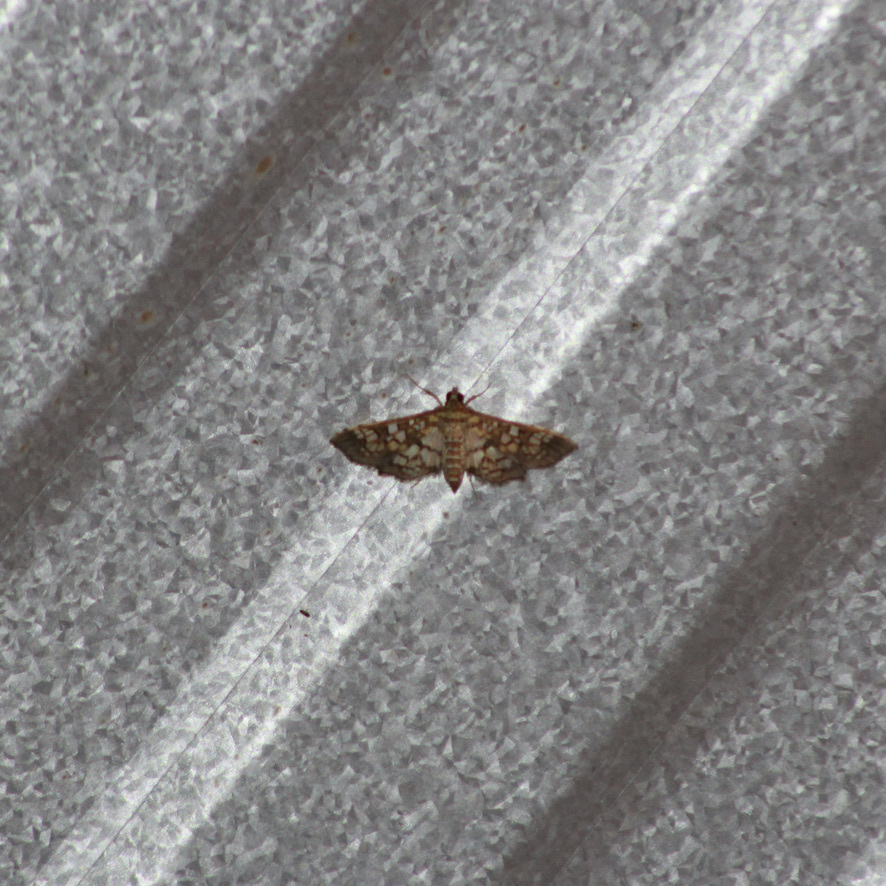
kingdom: Animalia
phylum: Arthropoda
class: Insecta
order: Lepidoptera
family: Crambidae
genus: Samea
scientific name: Samea ecclesialis
